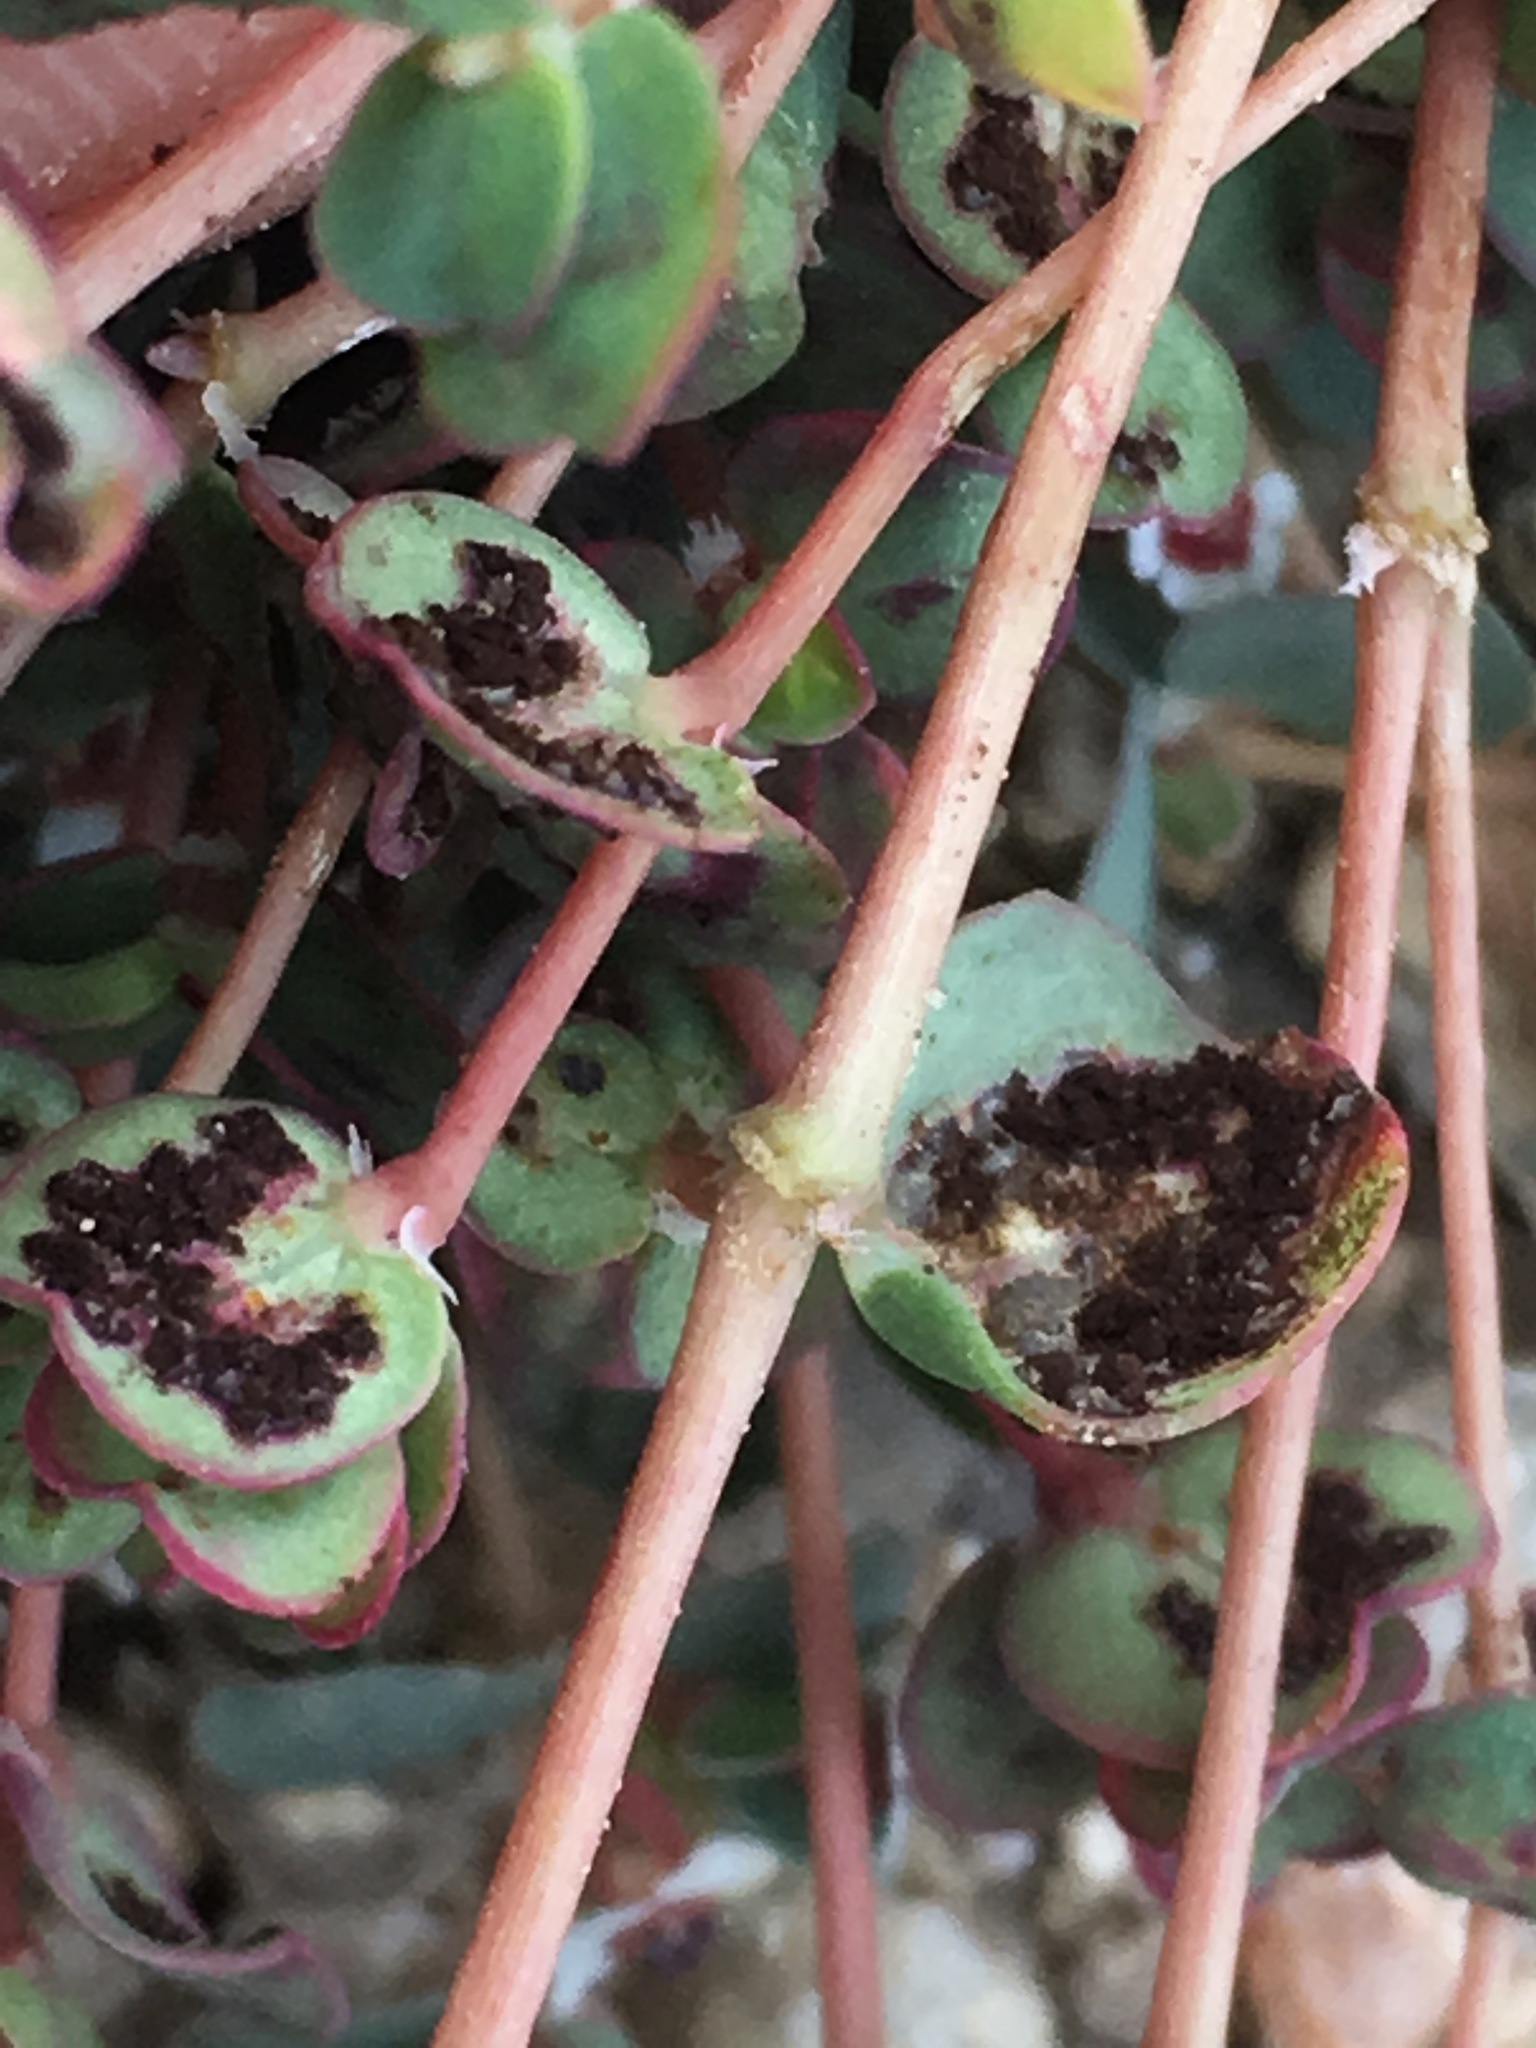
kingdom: Plantae
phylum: Tracheophyta
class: Magnoliopsida
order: Malpighiales
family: Euphorbiaceae
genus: Euphorbia
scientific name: Euphorbia albomarginata
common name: Whitemargin sandmat
